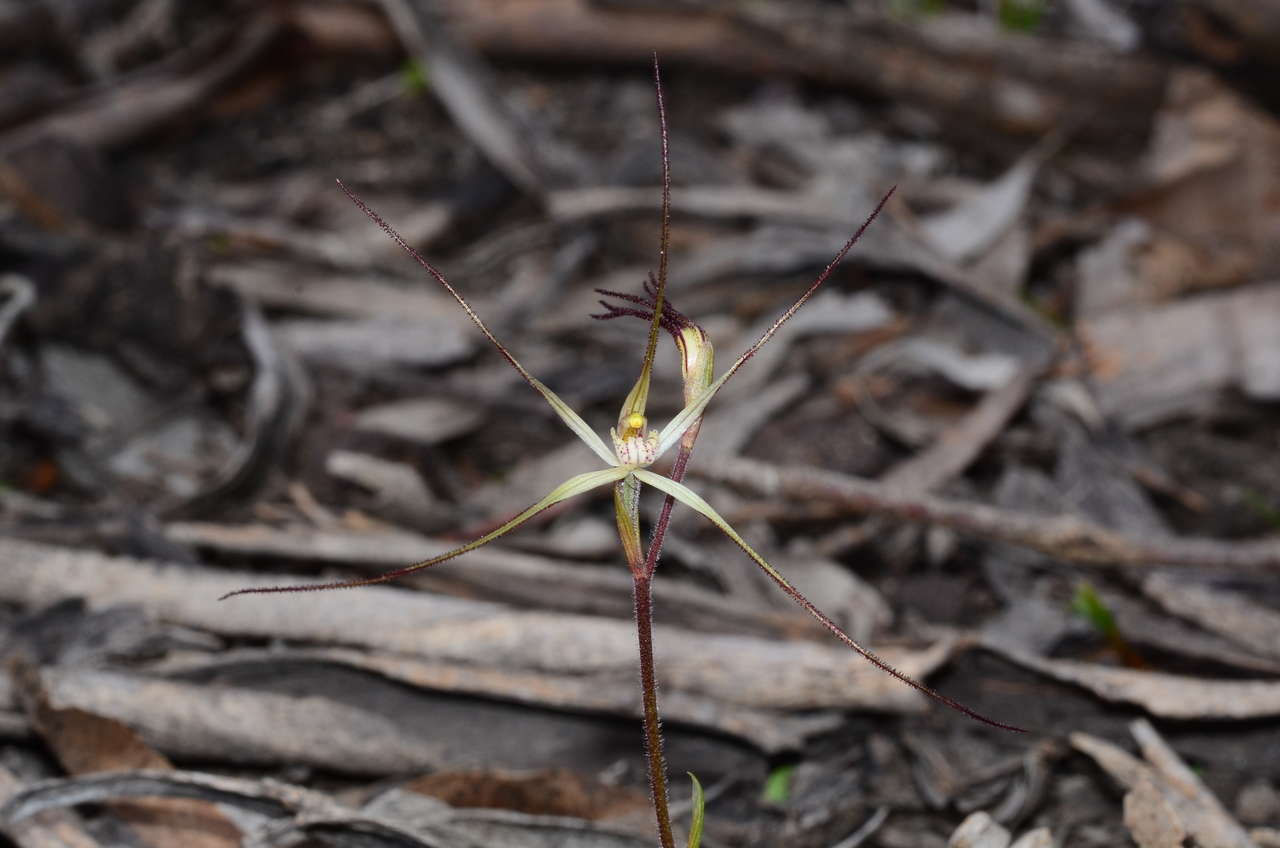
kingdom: Plantae
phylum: Tracheophyta
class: Liliopsida
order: Asparagales
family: Orchidaceae
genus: Caladenia
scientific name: Caladenia capillata
